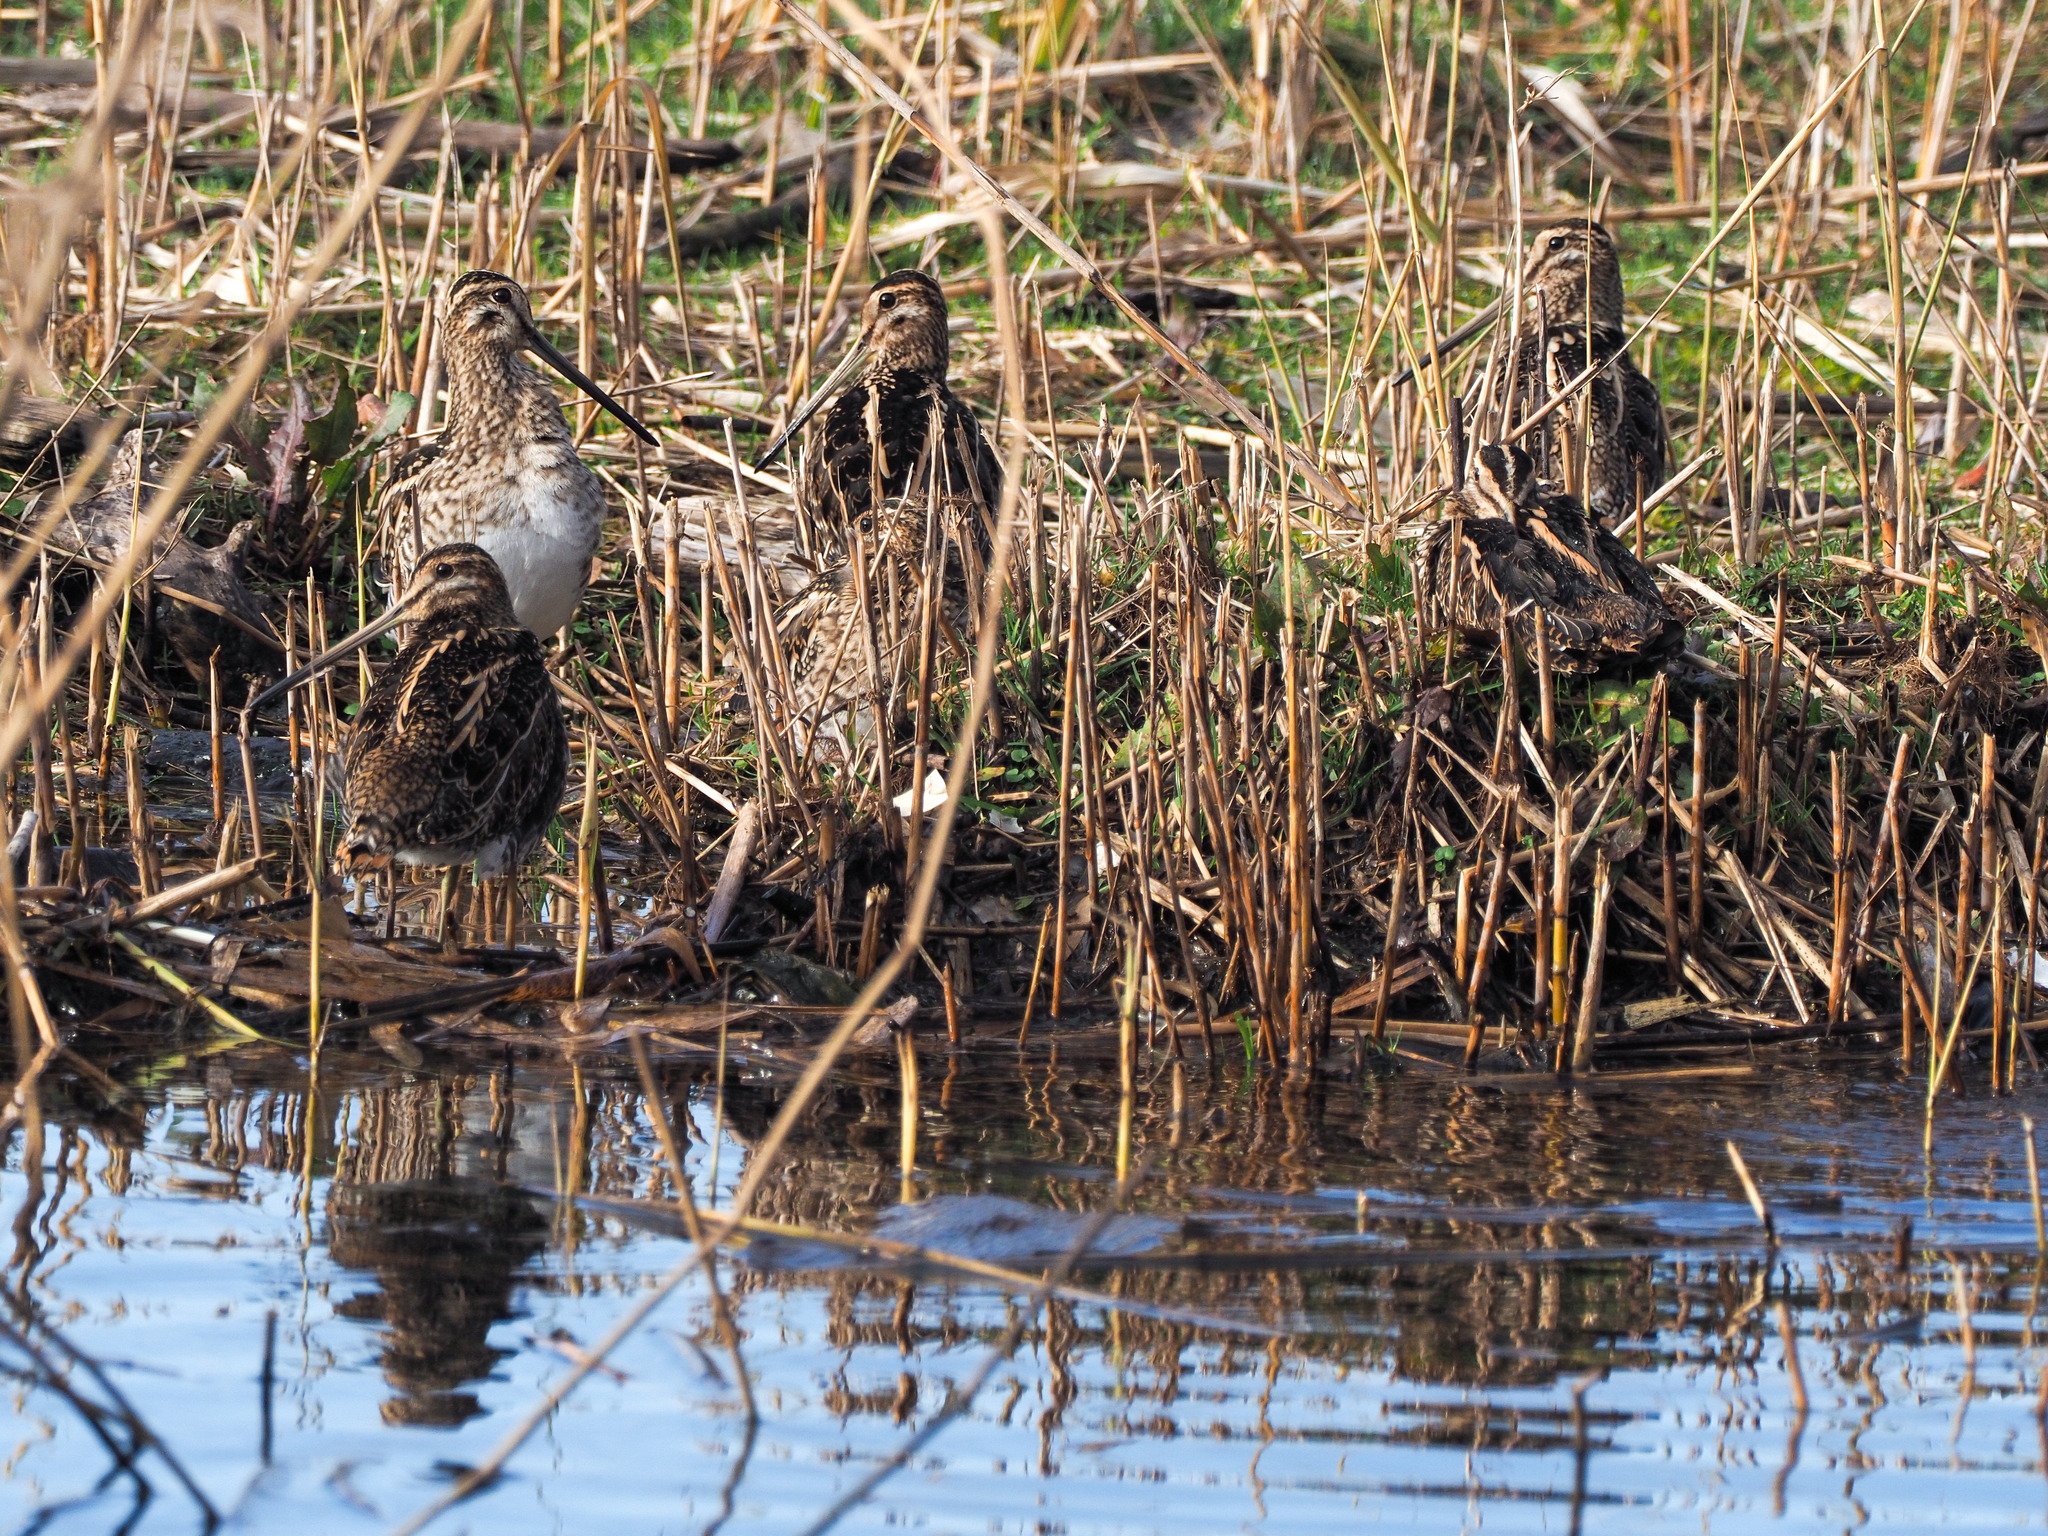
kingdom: Animalia
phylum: Chordata
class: Aves
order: Charadriiformes
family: Scolopacidae
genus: Gallinago
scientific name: Gallinago gallinago
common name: Common snipe
